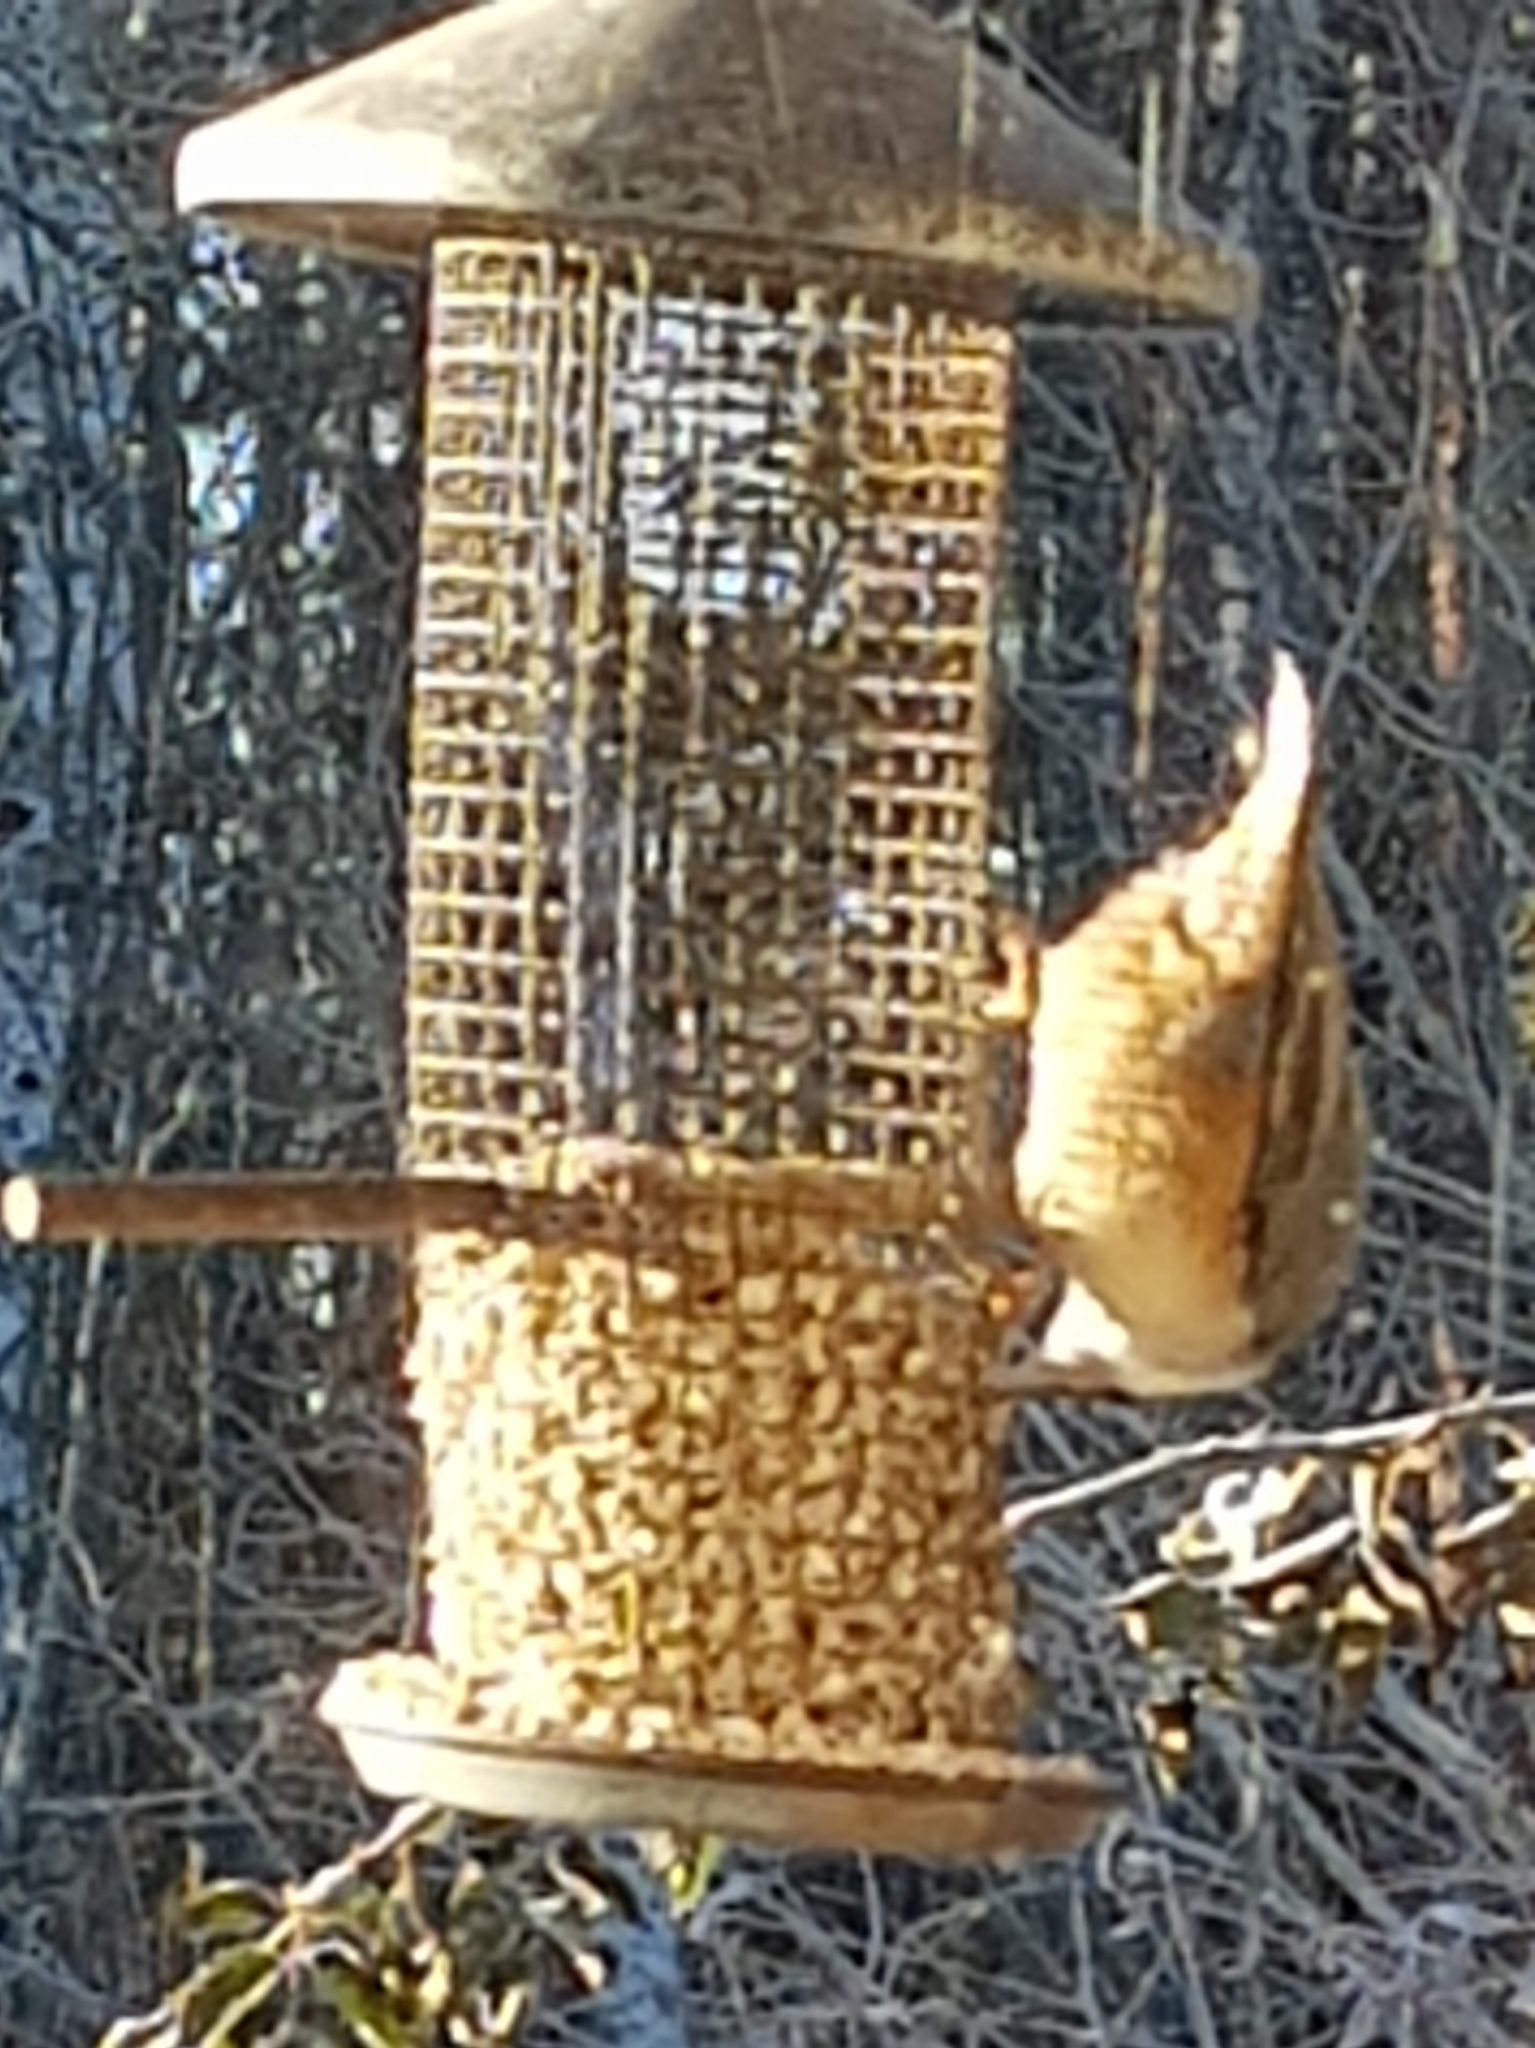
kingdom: Animalia
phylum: Chordata
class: Aves
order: Passeriformes
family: Sittidae
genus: Sitta
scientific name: Sitta europaea
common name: Eurasian nuthatch
